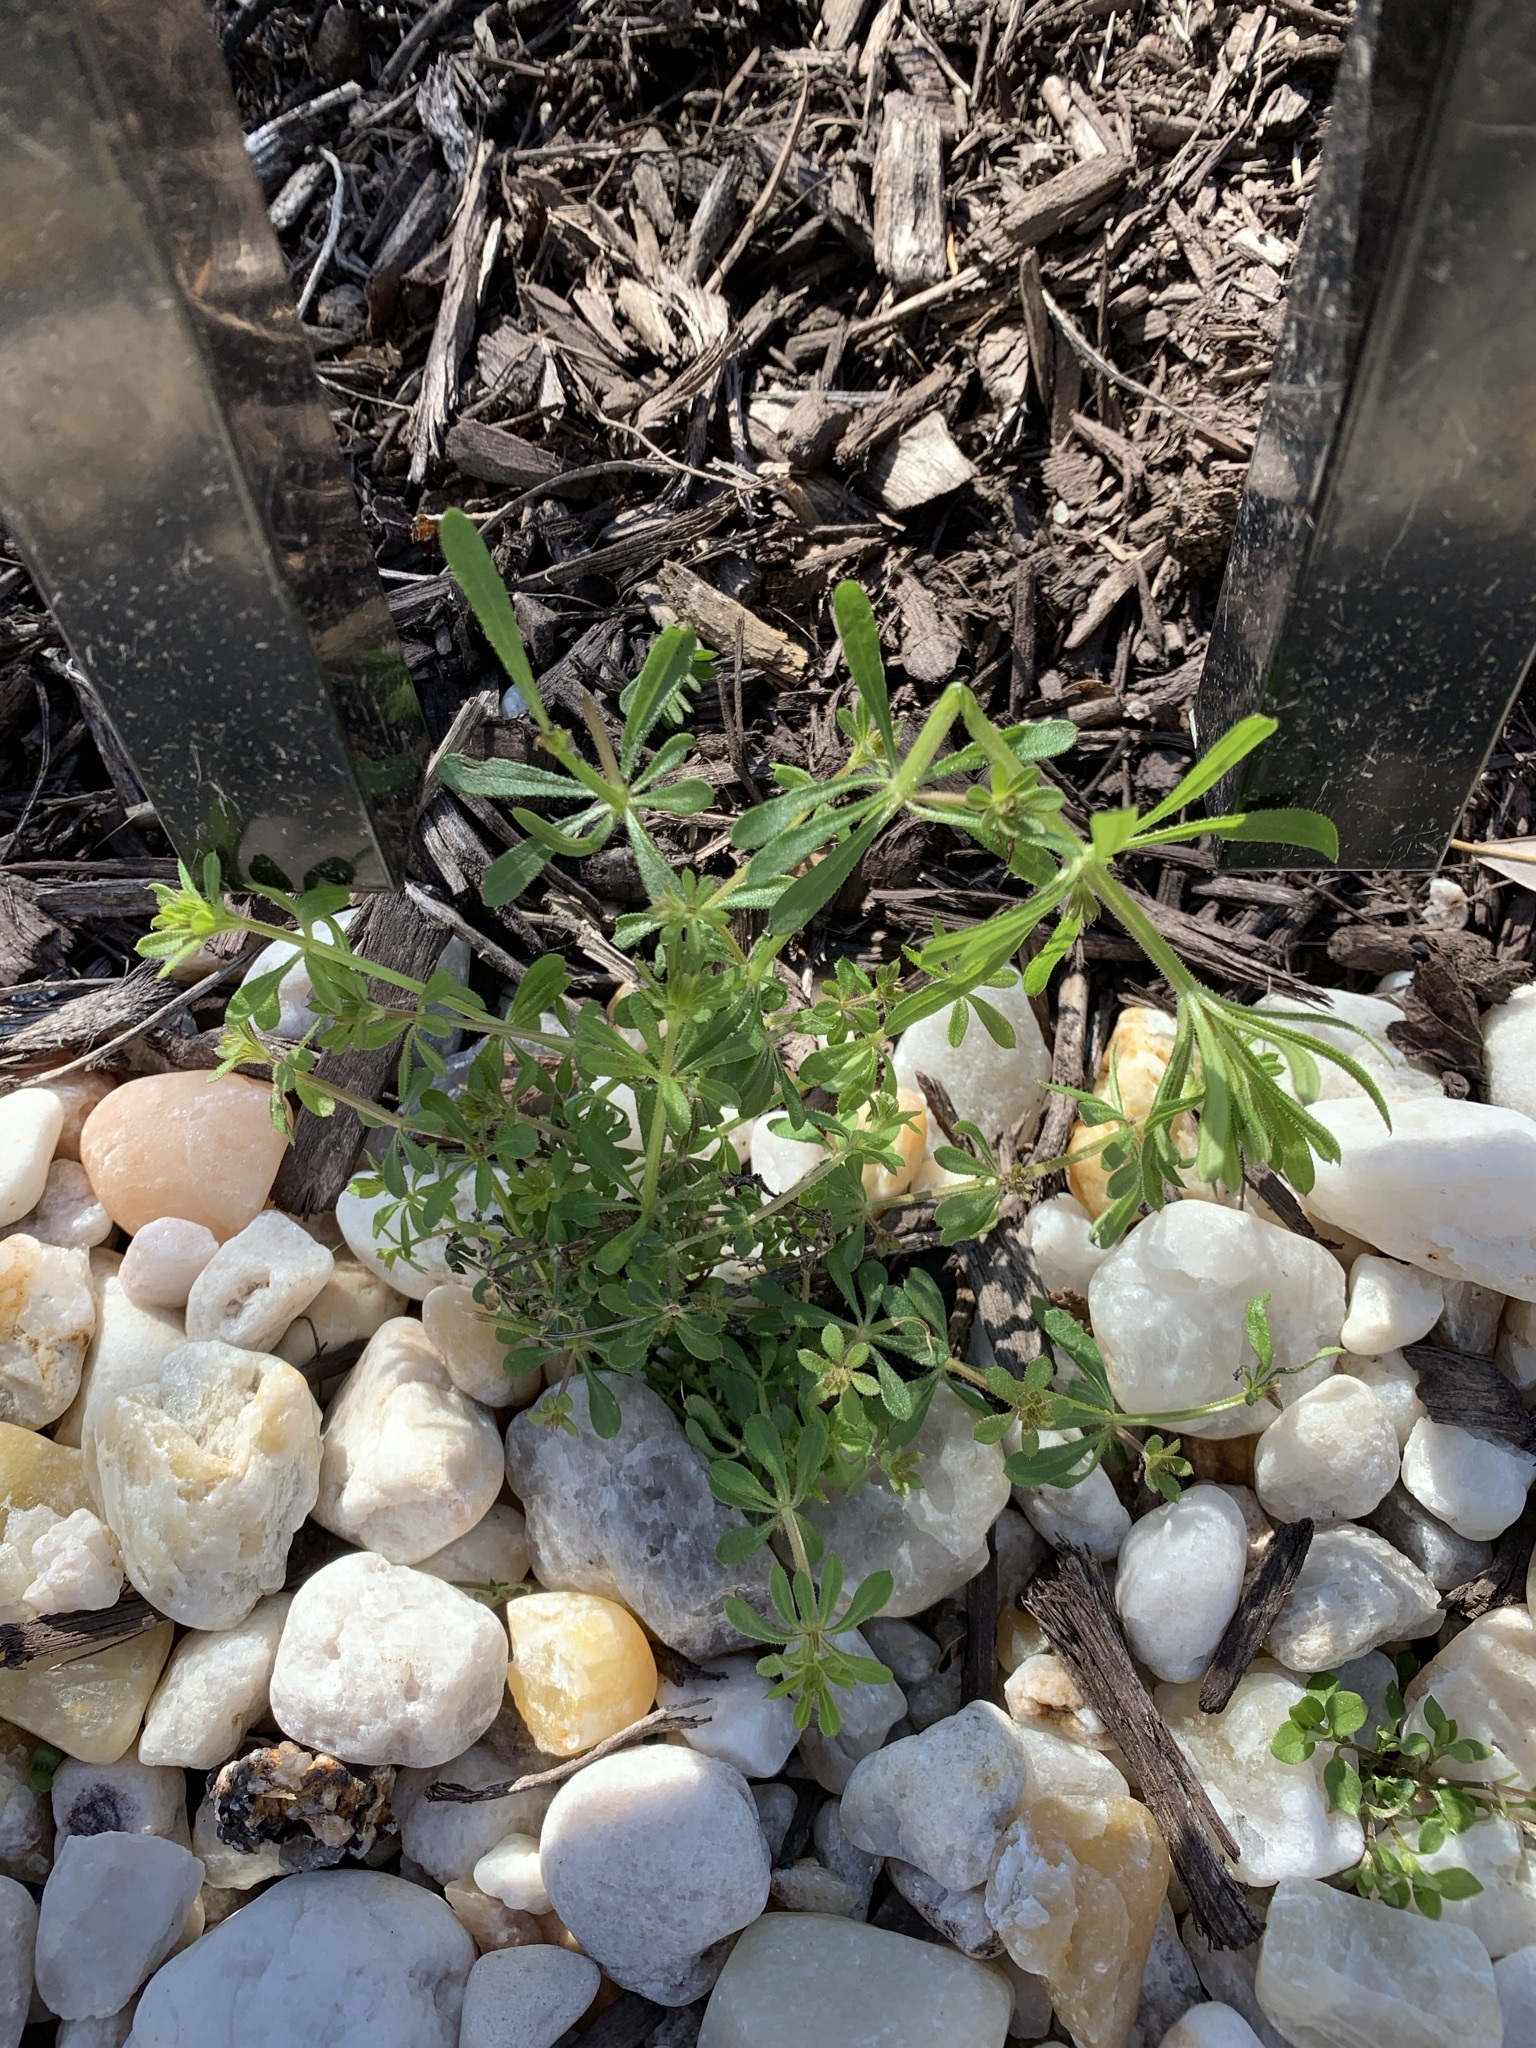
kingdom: Plantae
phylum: Tracheophyta
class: Magnoliopsida
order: Gentianales
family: Rubiaceae
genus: Galium
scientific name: Galium aparine
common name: Cleavers
